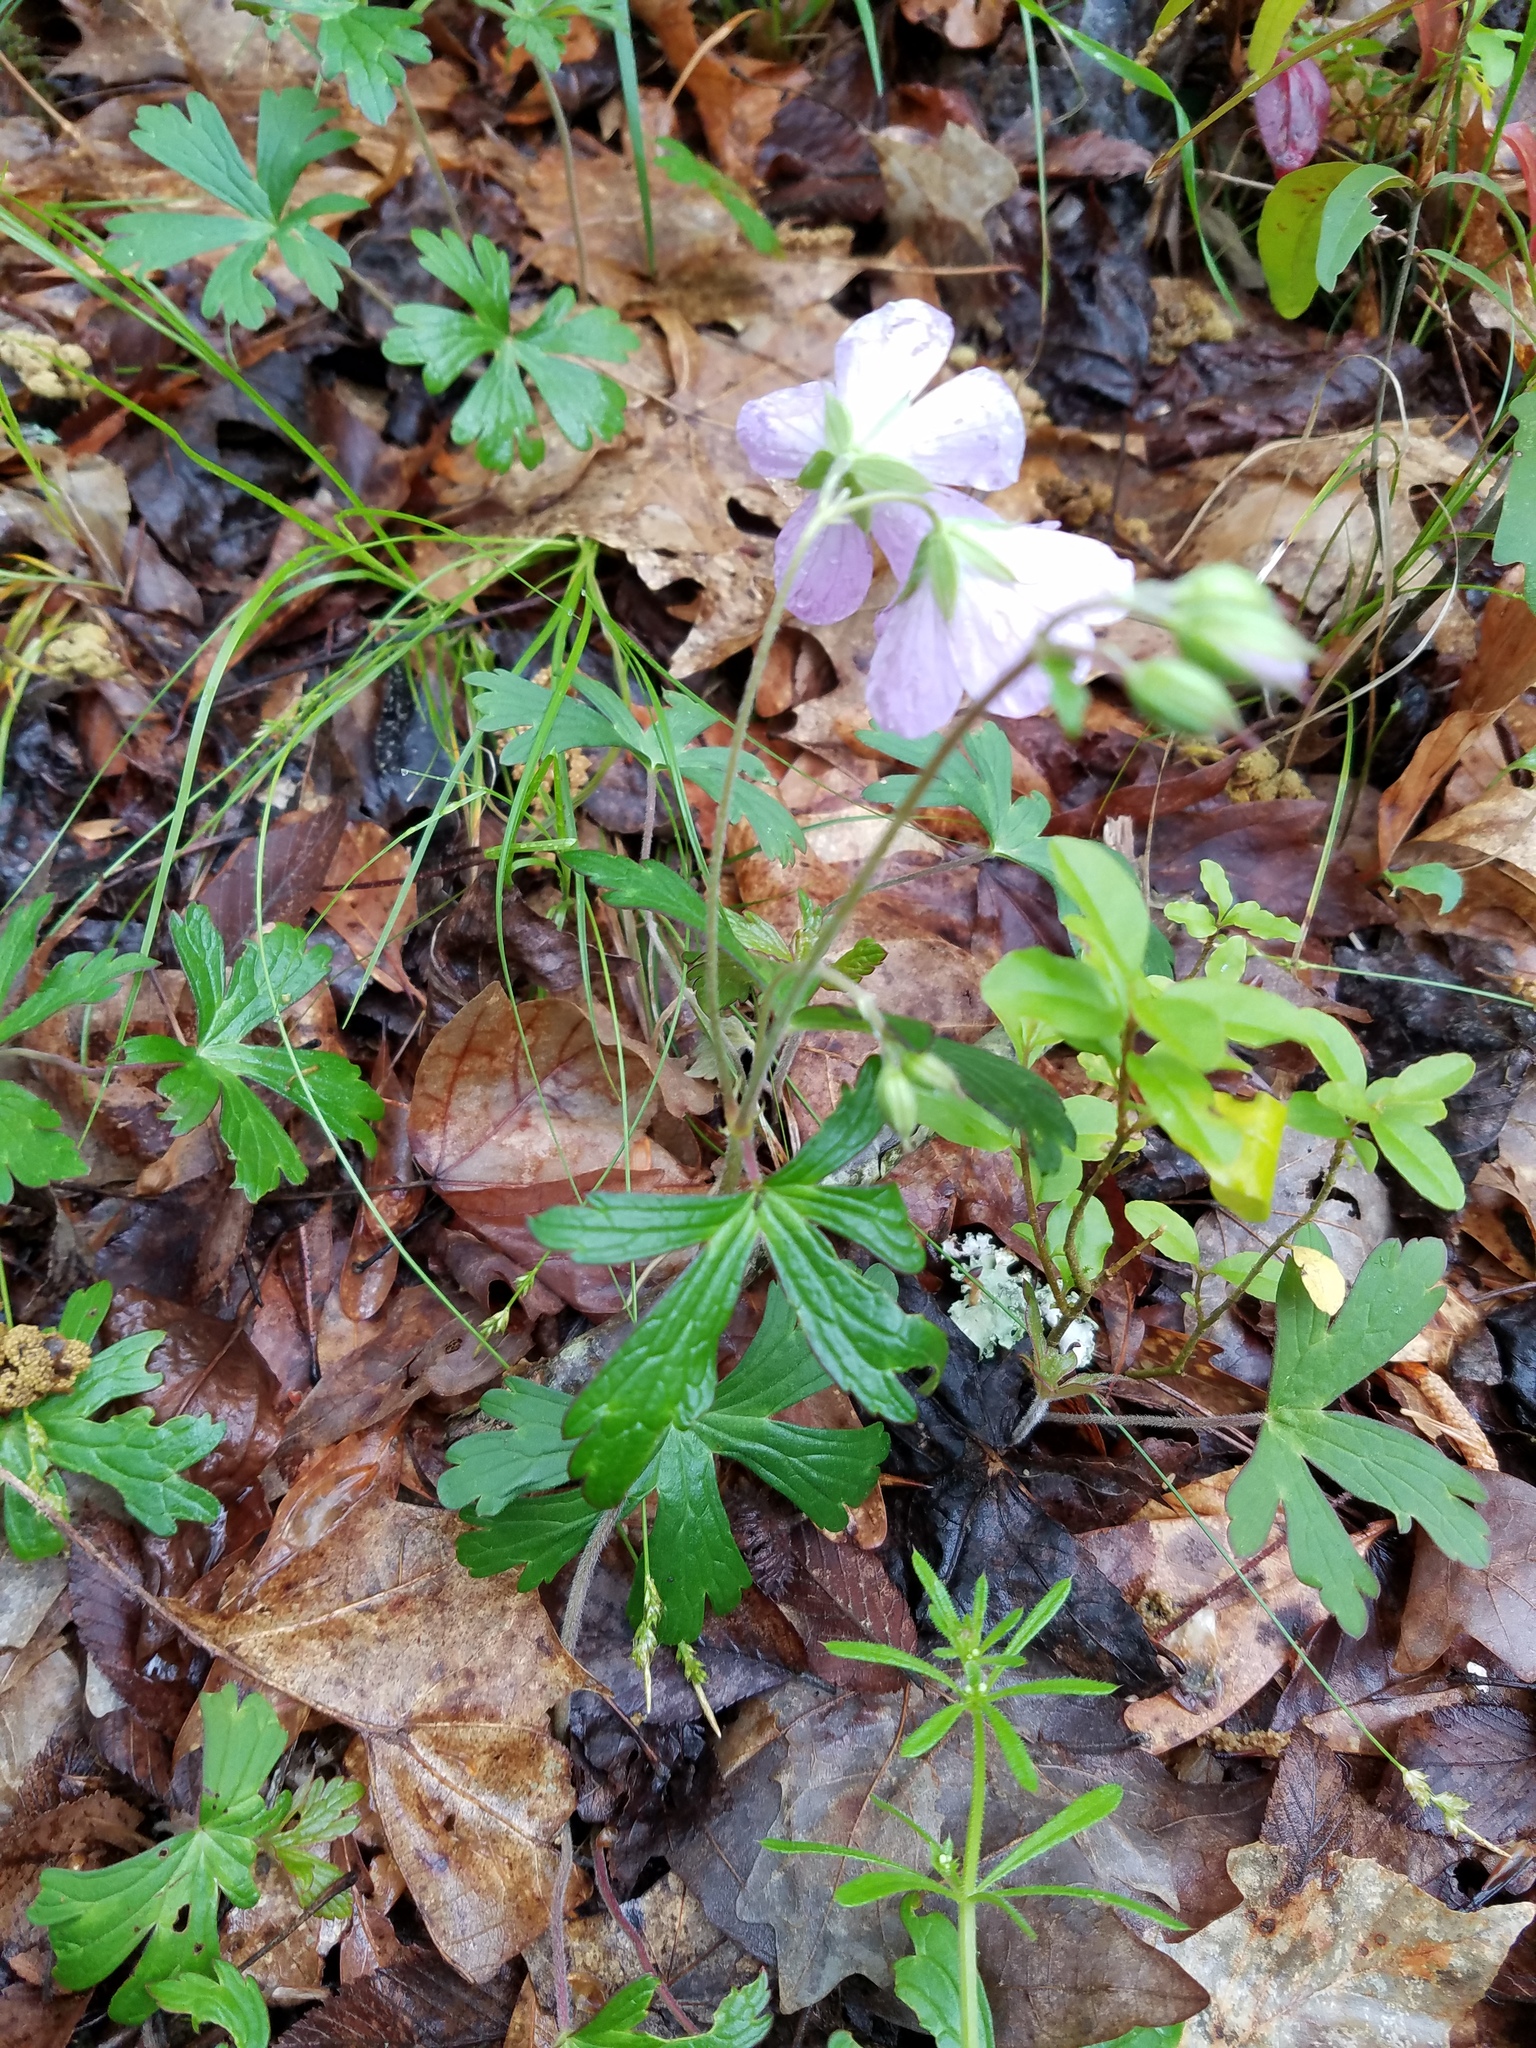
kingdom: Plantae
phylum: Tracheophyta
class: Magnoliopsida
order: Geraniales
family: Geraniaceae
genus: Geranium
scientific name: Geranium maculatum
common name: Spotted geranium
